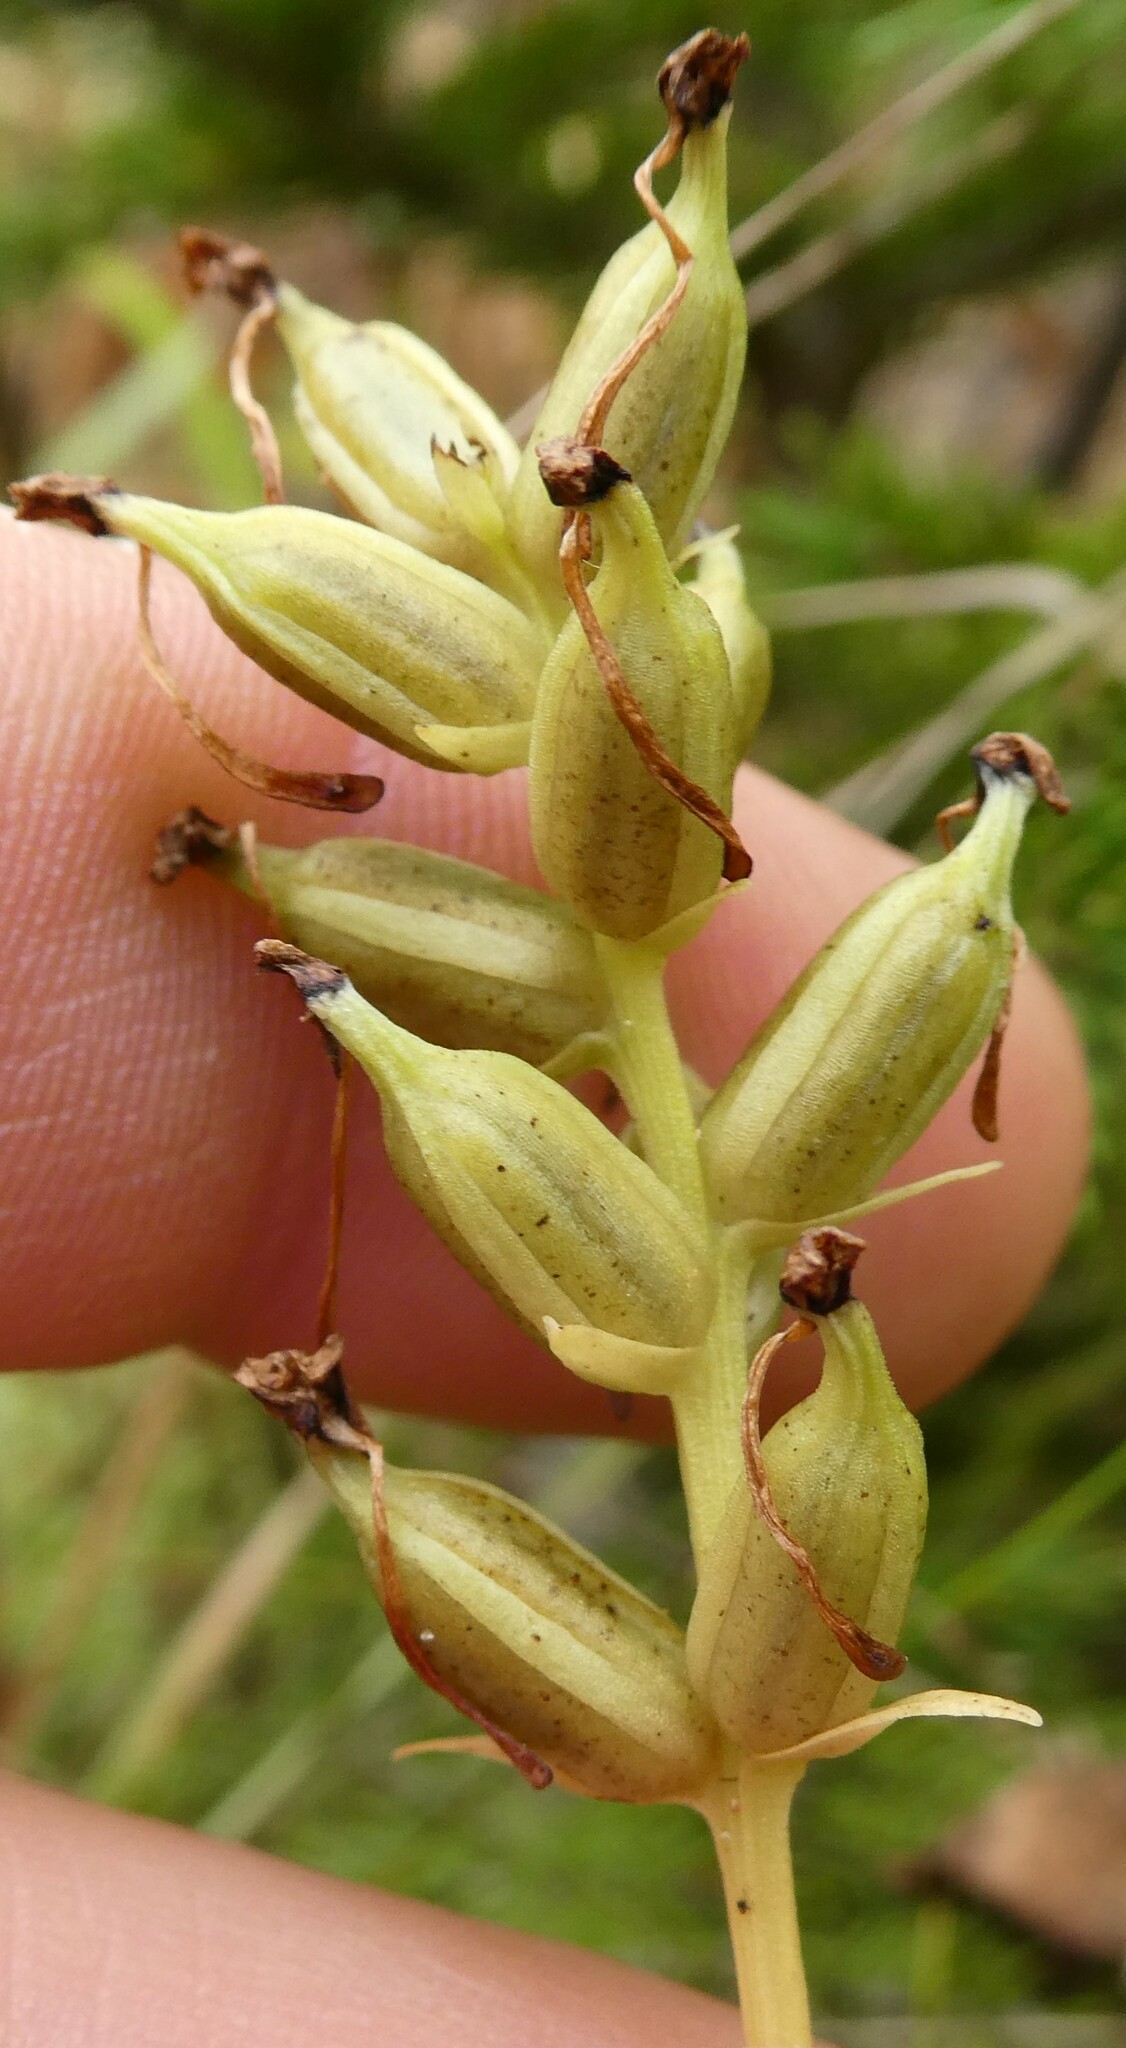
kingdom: Plantae
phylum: Tracheophyta
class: Liliopsida
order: Asparagales
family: Orchidaceae
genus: Platanthera
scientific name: Platanthera clavellata
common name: Club-spur orchid
